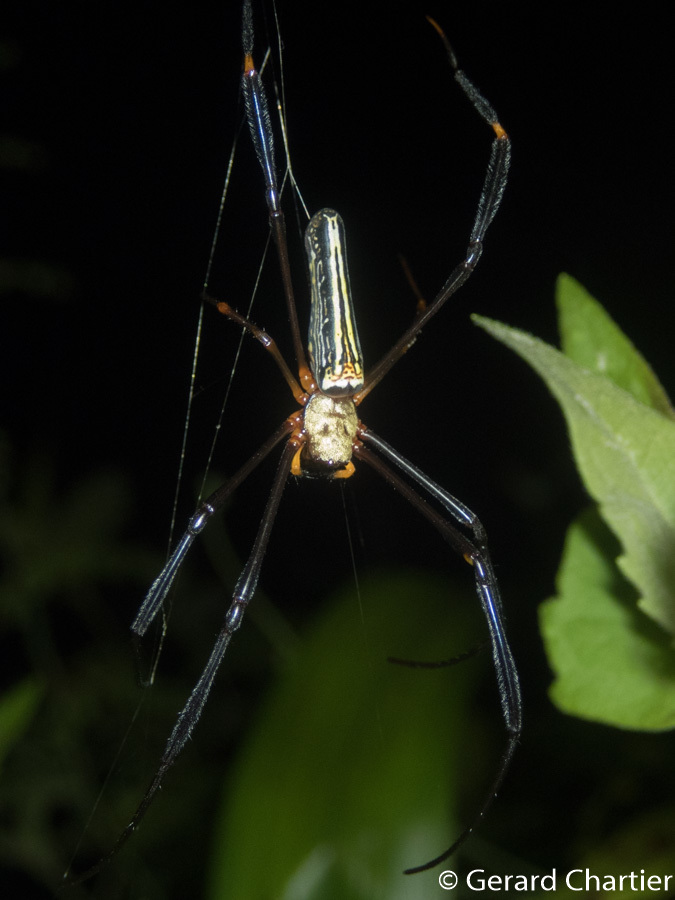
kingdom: Animalia
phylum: Arthropoda
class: Arachnida
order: Araneae
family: Araneidae
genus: Nephila
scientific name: Nephila pilipes
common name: Giant golden orb weaver
